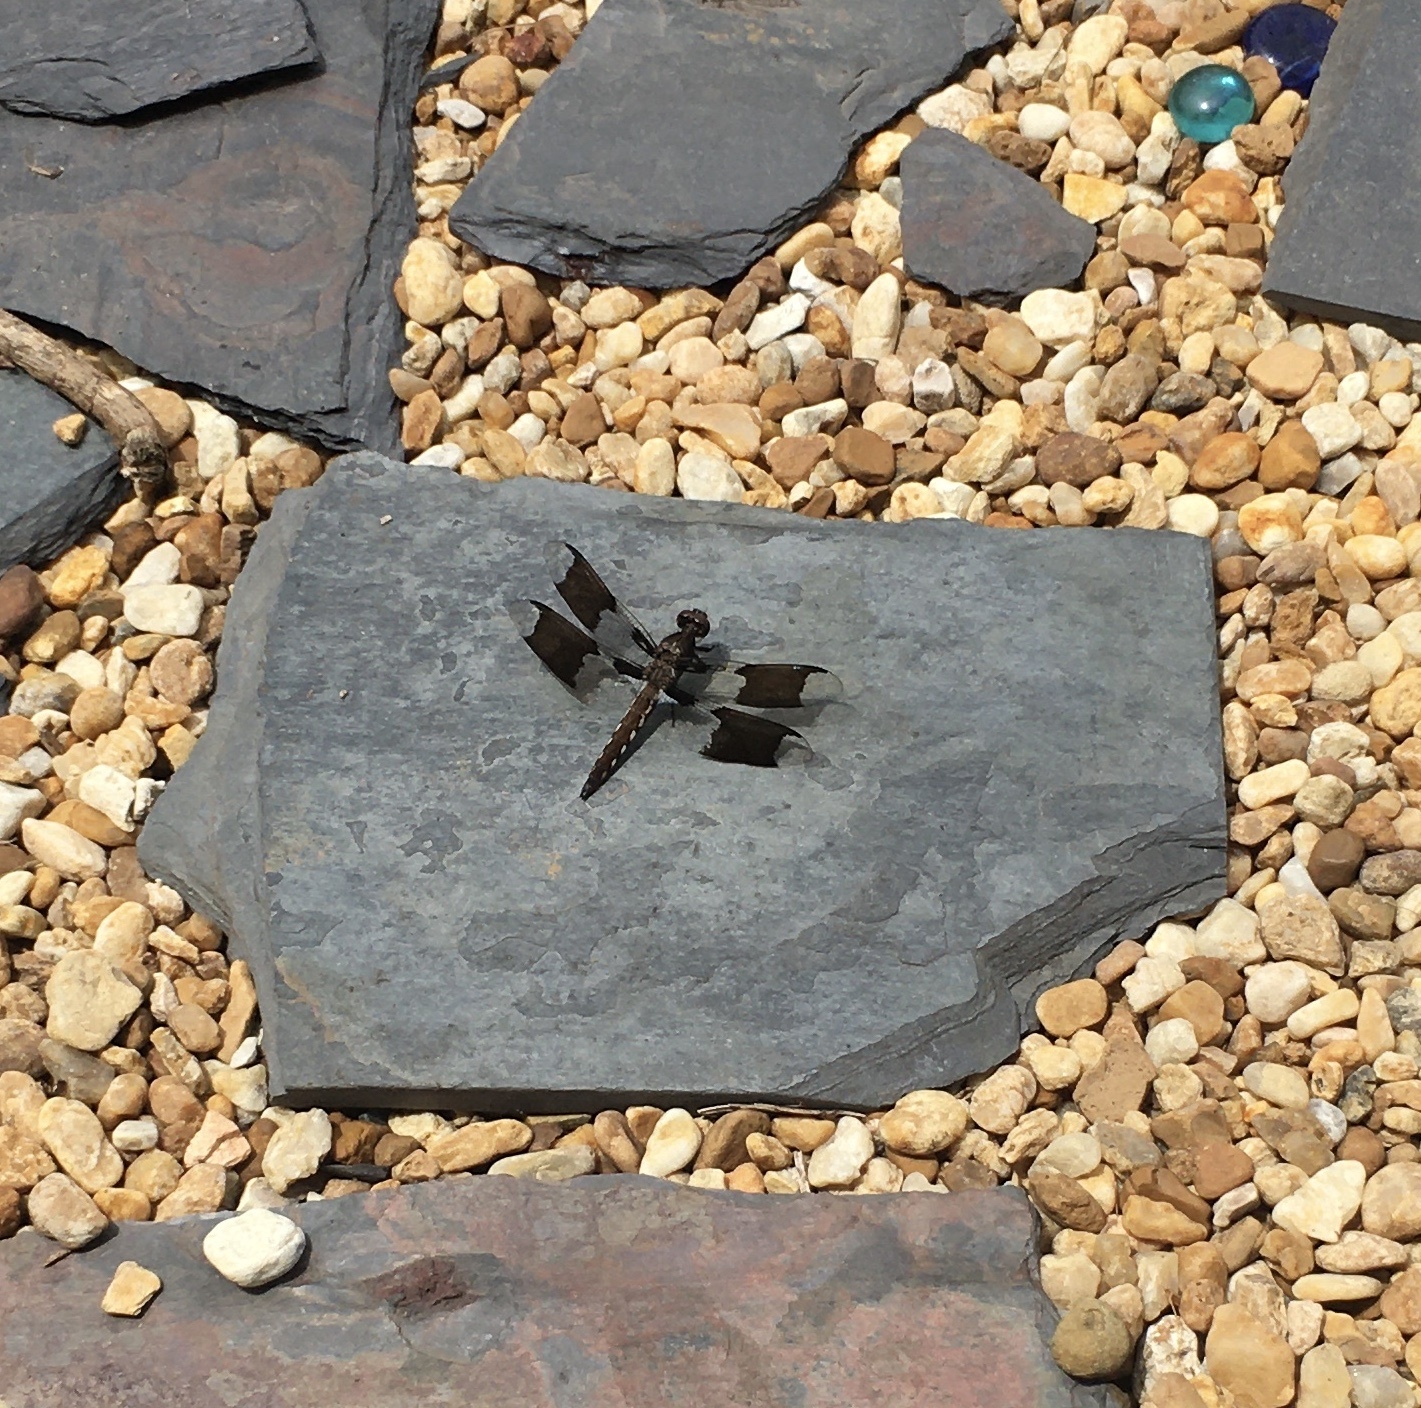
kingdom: Animalia
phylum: Arthropoda
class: Insecta
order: Odonata
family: Libellulidae
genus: Plathemis
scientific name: Plathemis lydia
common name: Common whitetail
